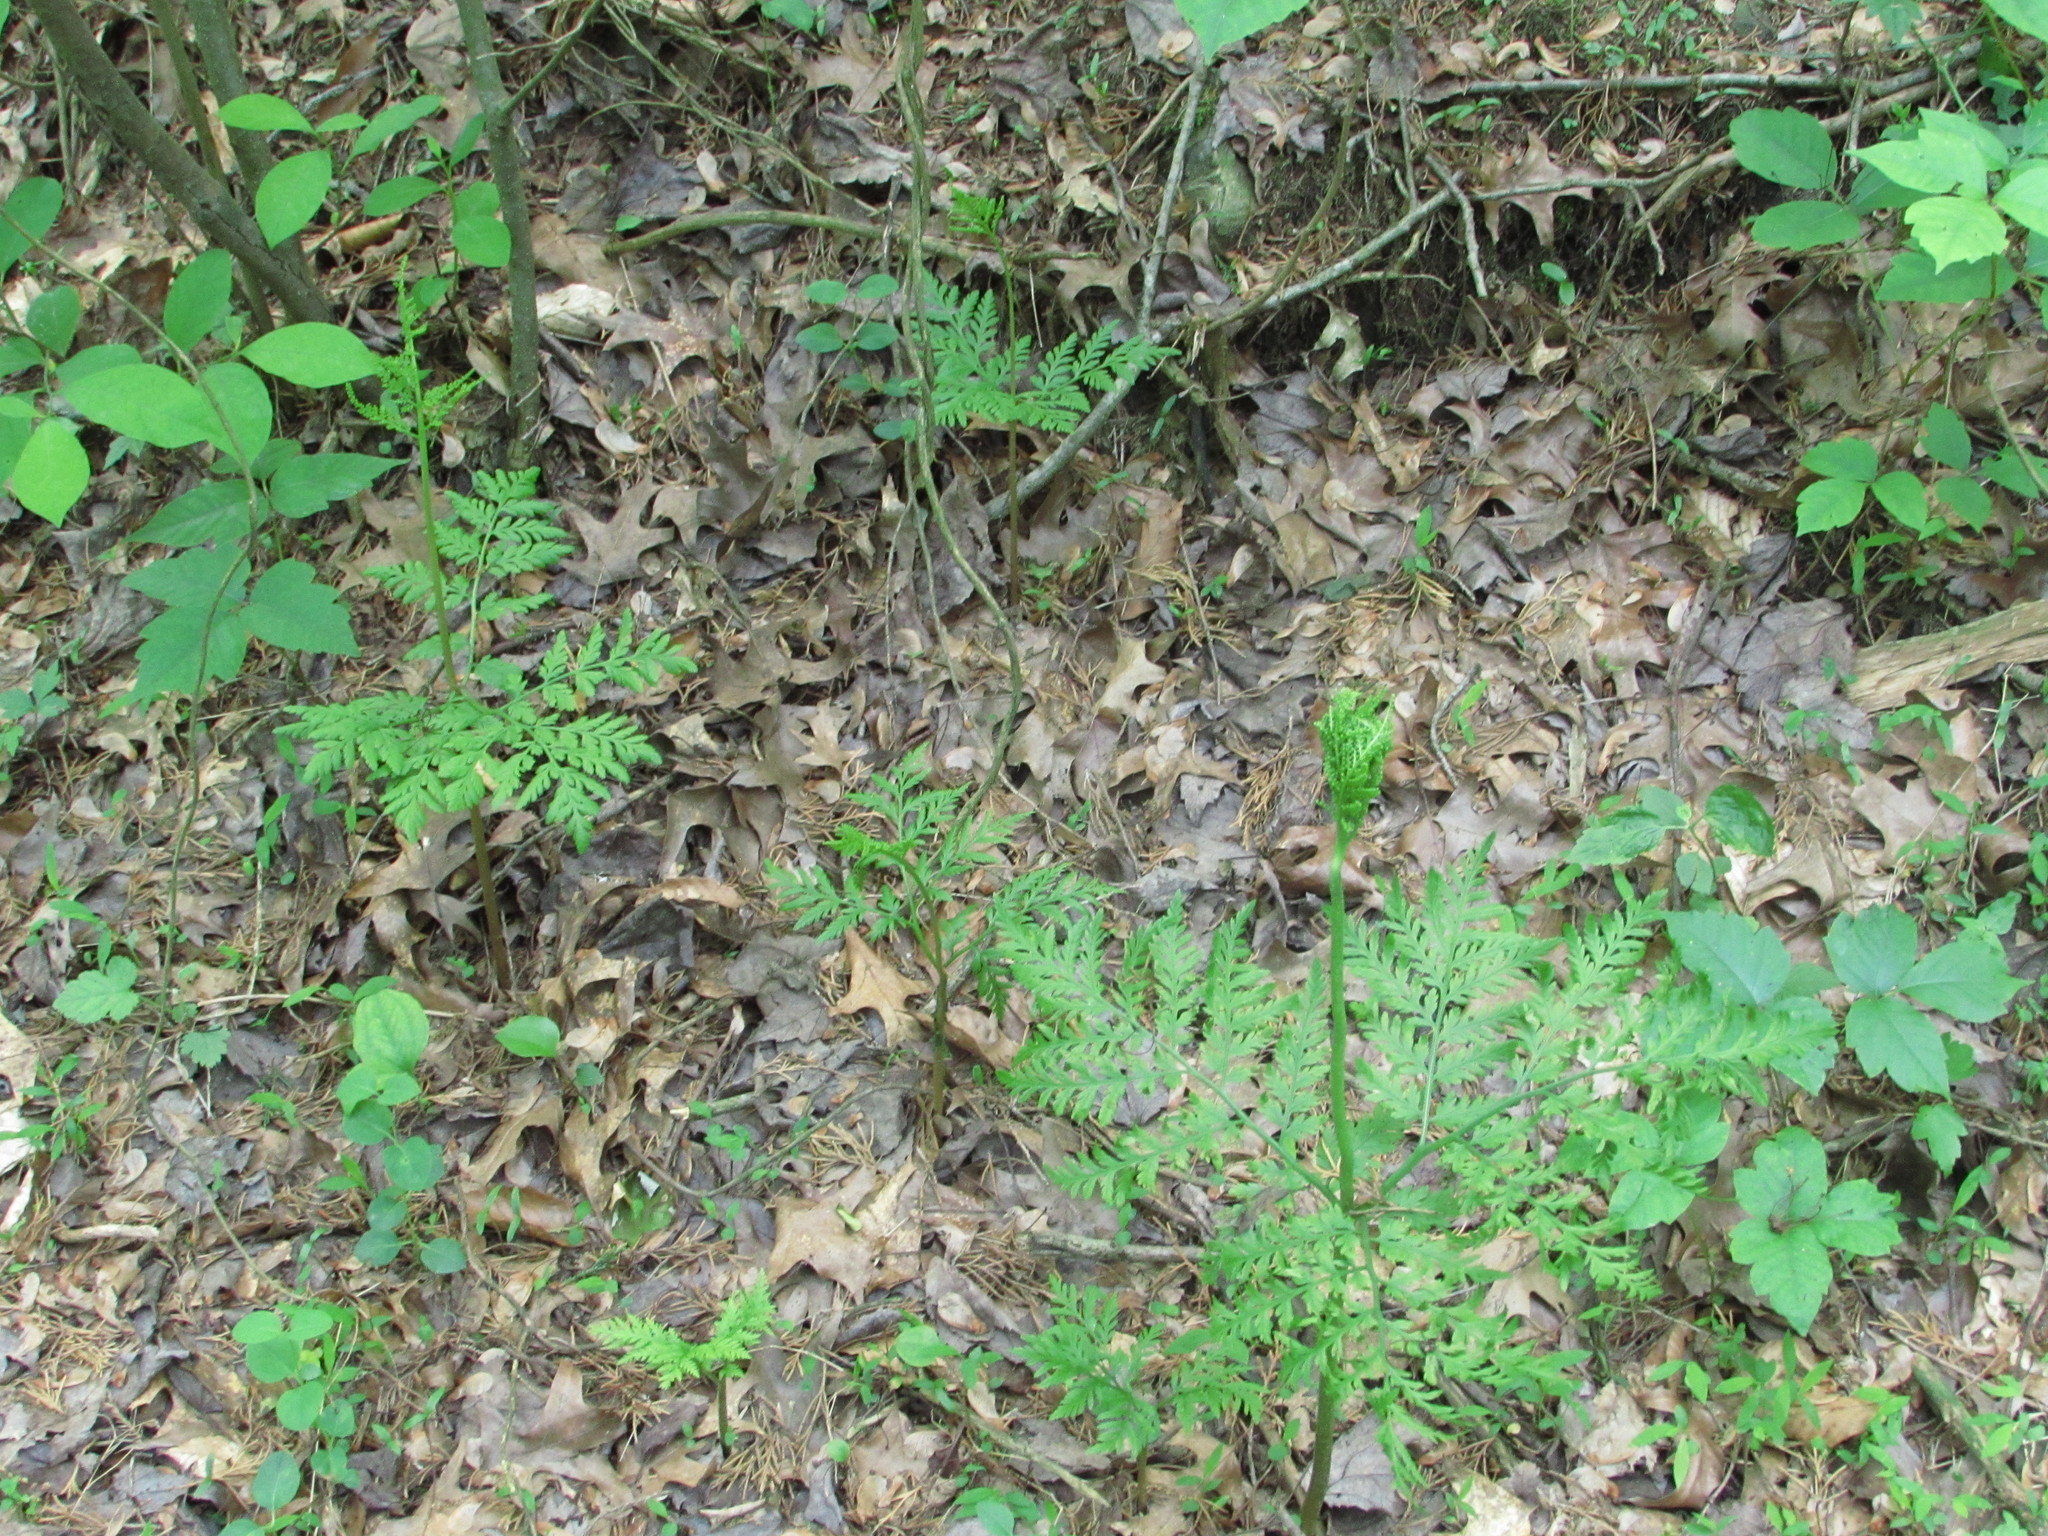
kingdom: Plantae
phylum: Tracheophyta
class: Polypodiopsida
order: Ophioglossales
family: Ophioglossaceae
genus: Botrypus
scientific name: Botrypus virginianus
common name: Common grapefern
